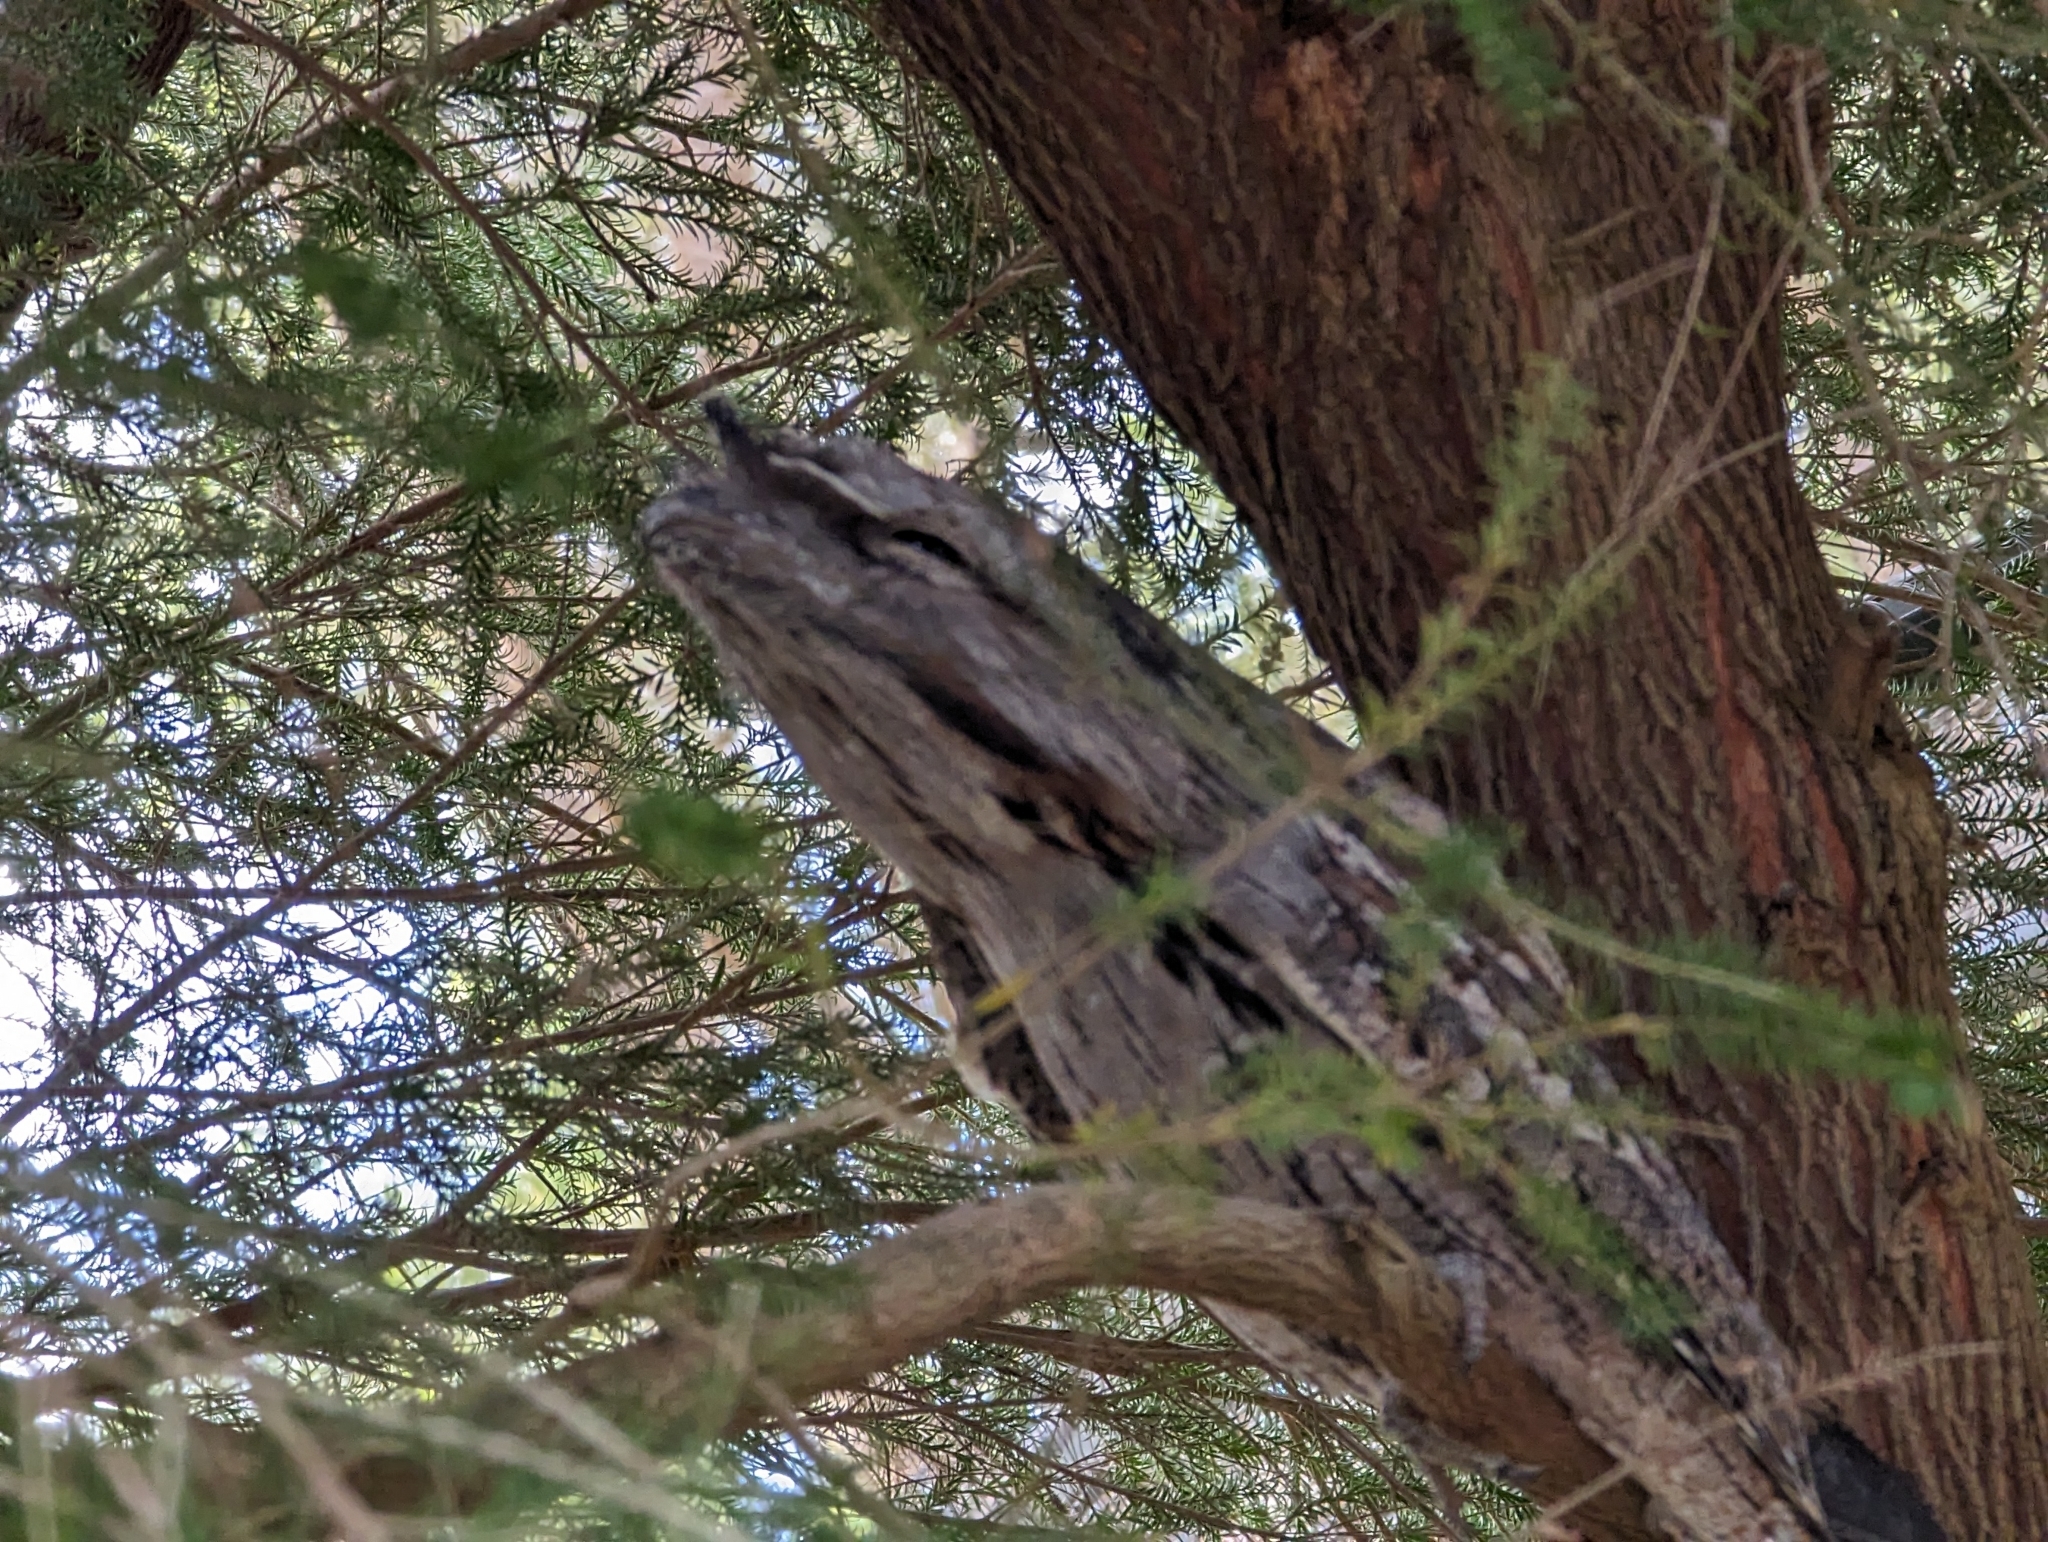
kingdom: Animalia
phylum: Chordata
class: Aves
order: Caprimulgiformes
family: Podargidae
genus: Podargus
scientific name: Podargus strigoides
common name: Tawny frogmouth
